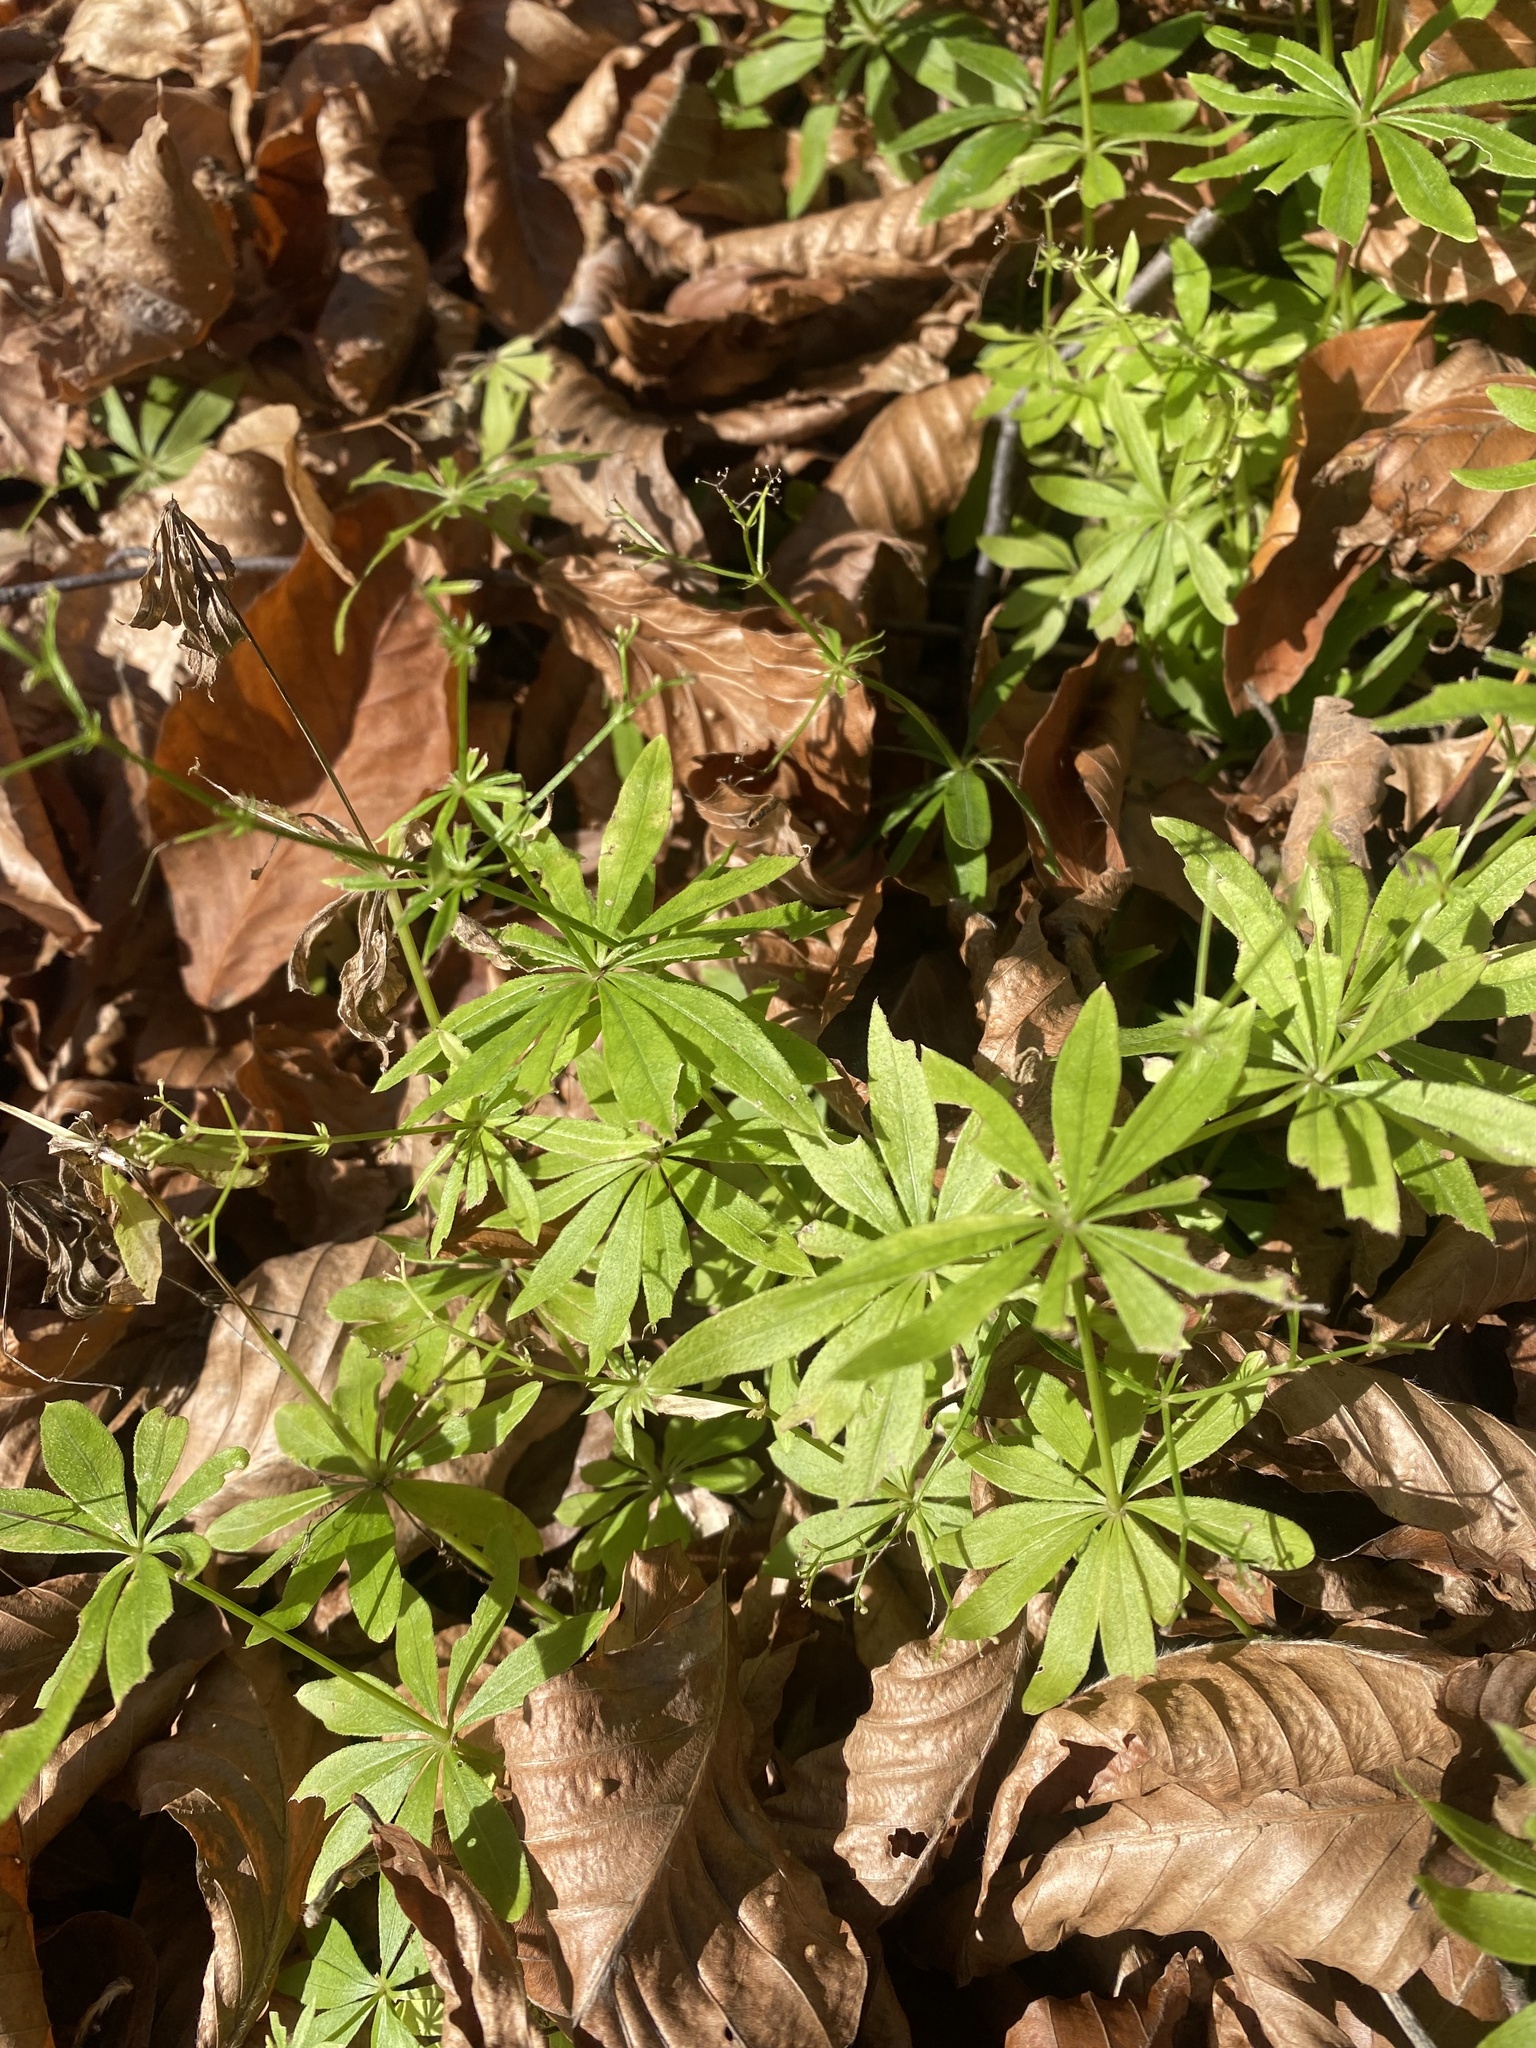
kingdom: Plantae
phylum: Tracheophyta
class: Magnoliopsida
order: Gentianales
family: Rubiaceae
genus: Galium
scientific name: Galium odoratum
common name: Sweet woodruff
